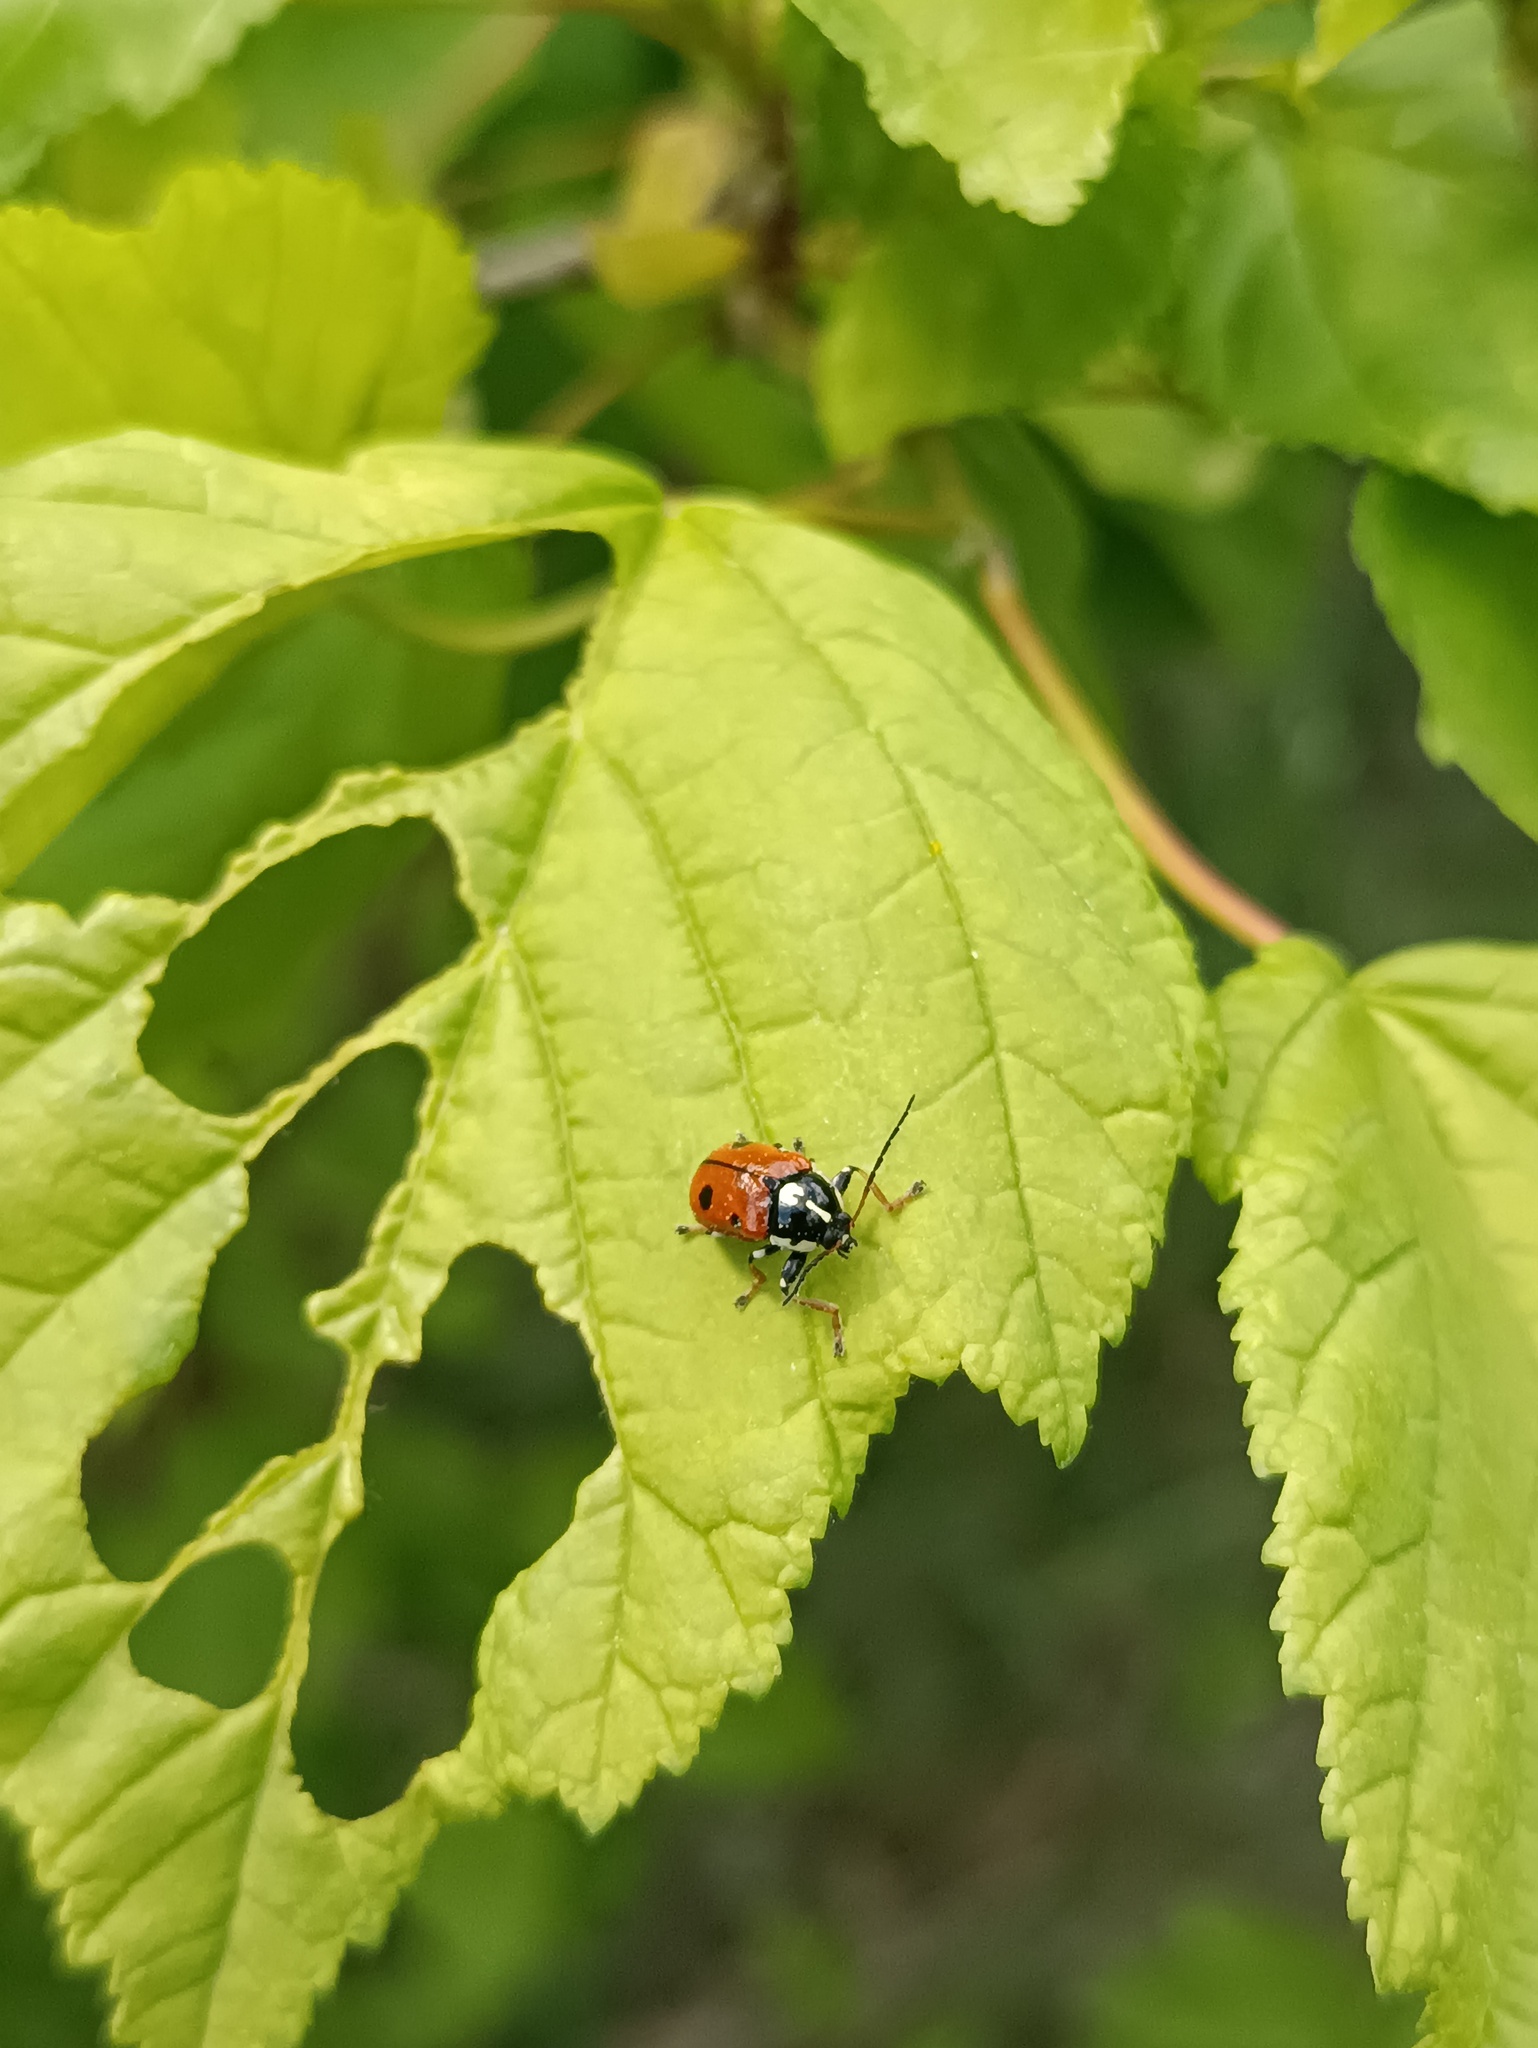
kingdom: Animalia
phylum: Arthropoda
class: Insecta
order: Coleoptera
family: Chrysomelidae
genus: Cryptocephalus
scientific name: Cryptocephalus cordiger
